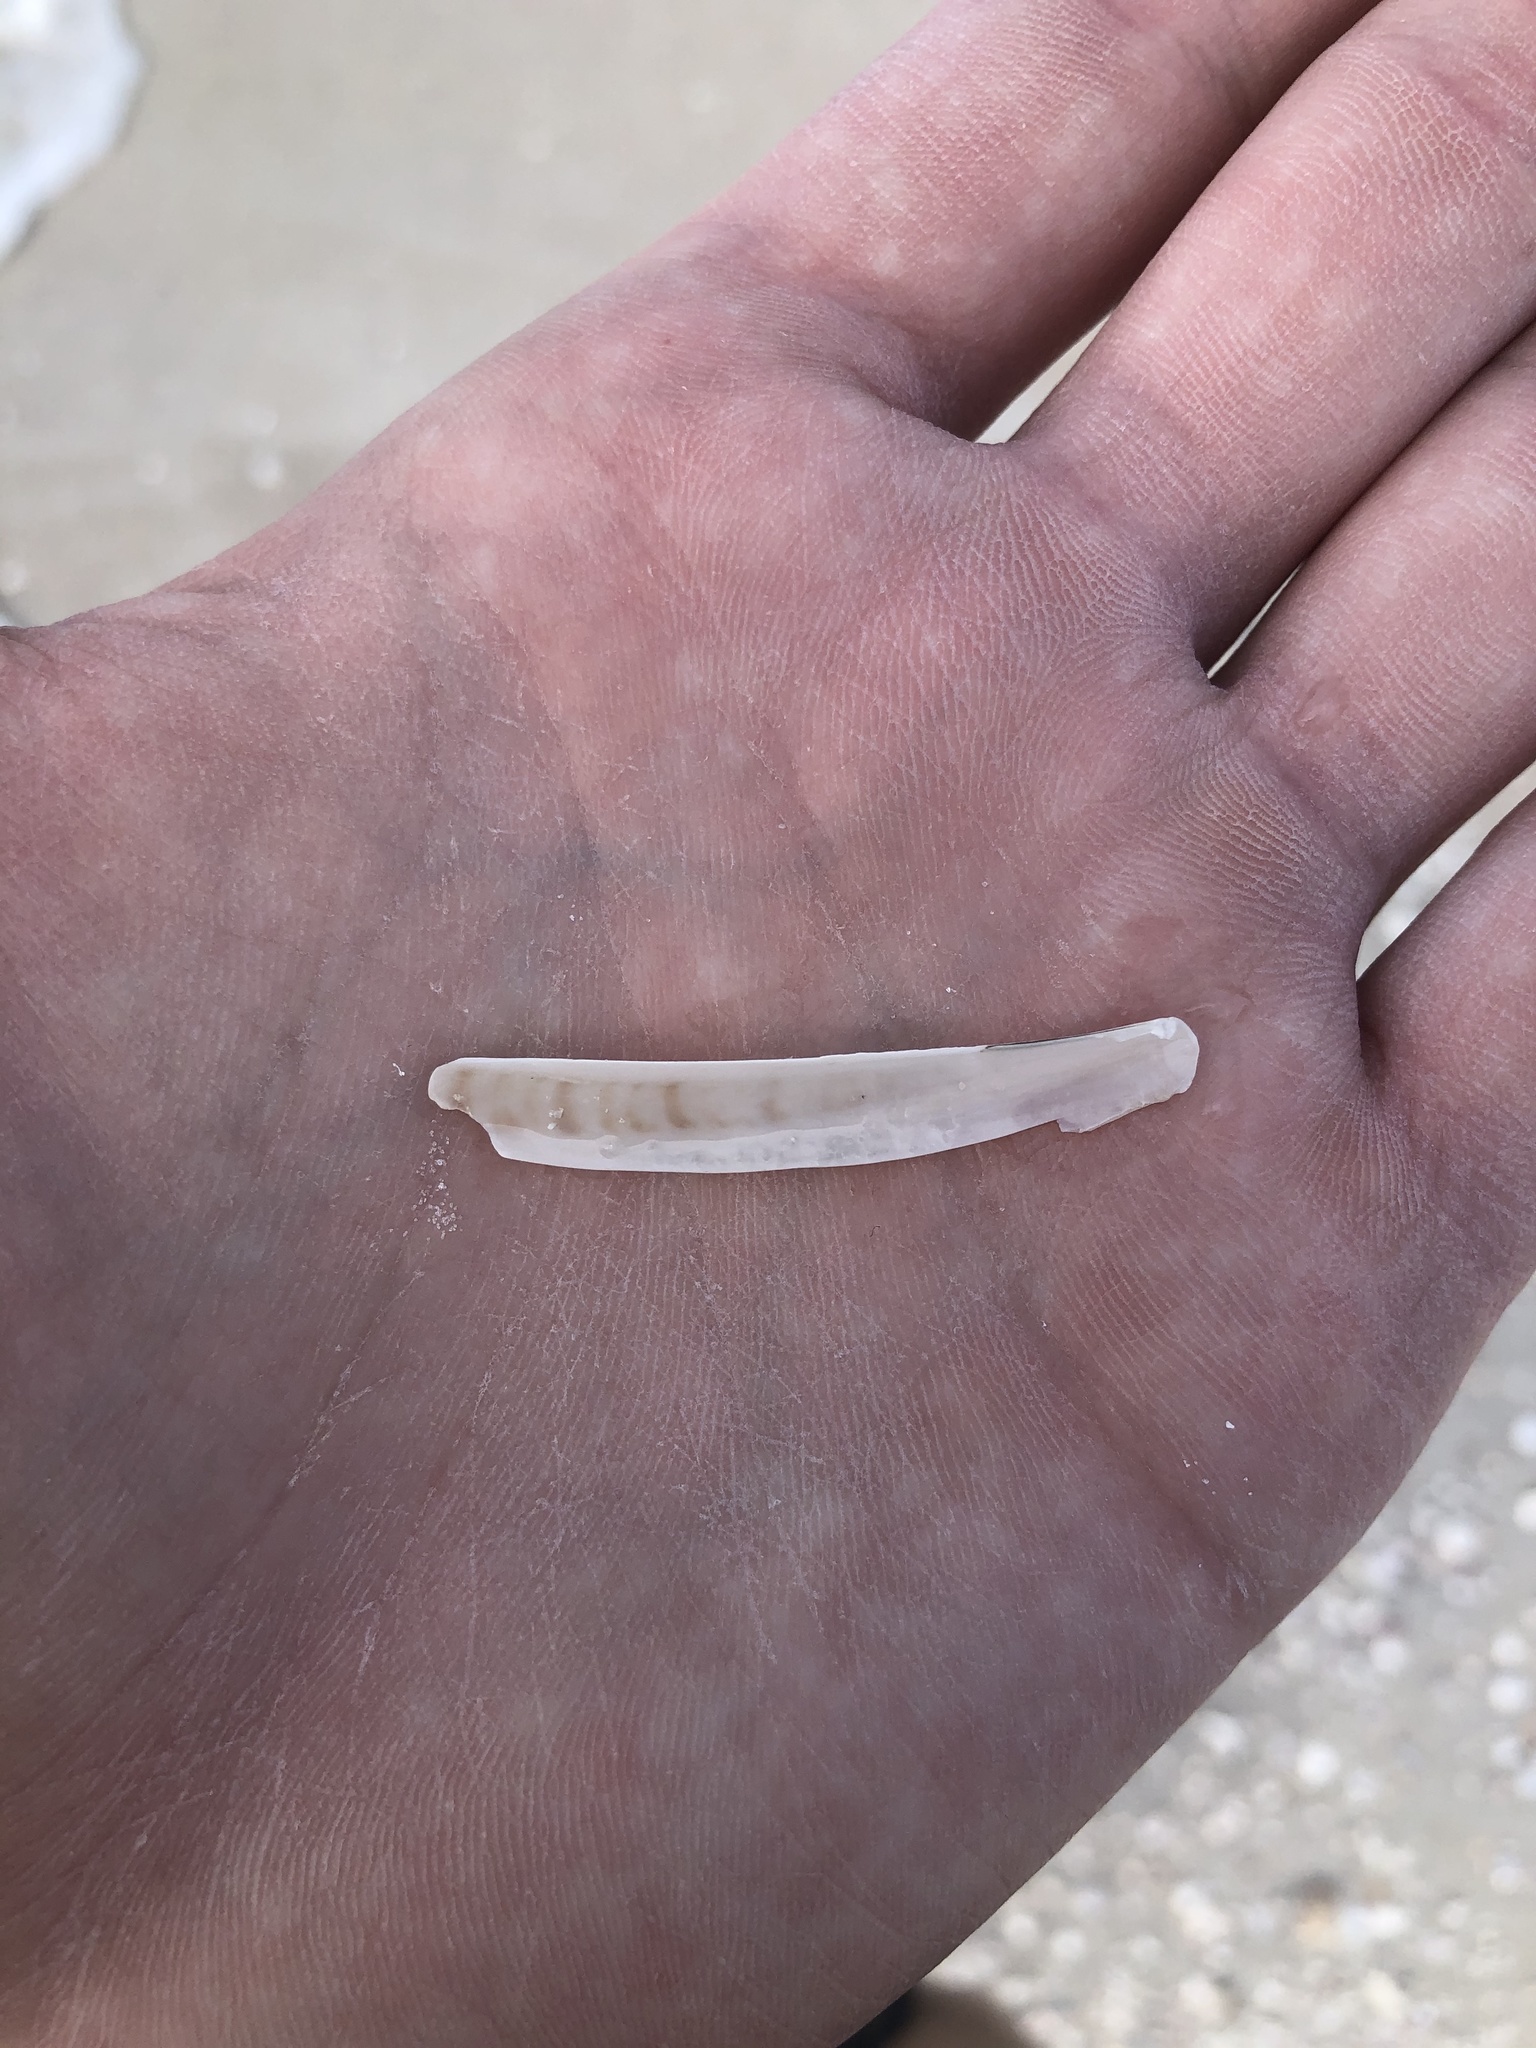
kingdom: Animalia
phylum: Mollusca
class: Bivalvia
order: Adapedonta
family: Pharidae
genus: Ensis
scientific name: Ensis megistus
